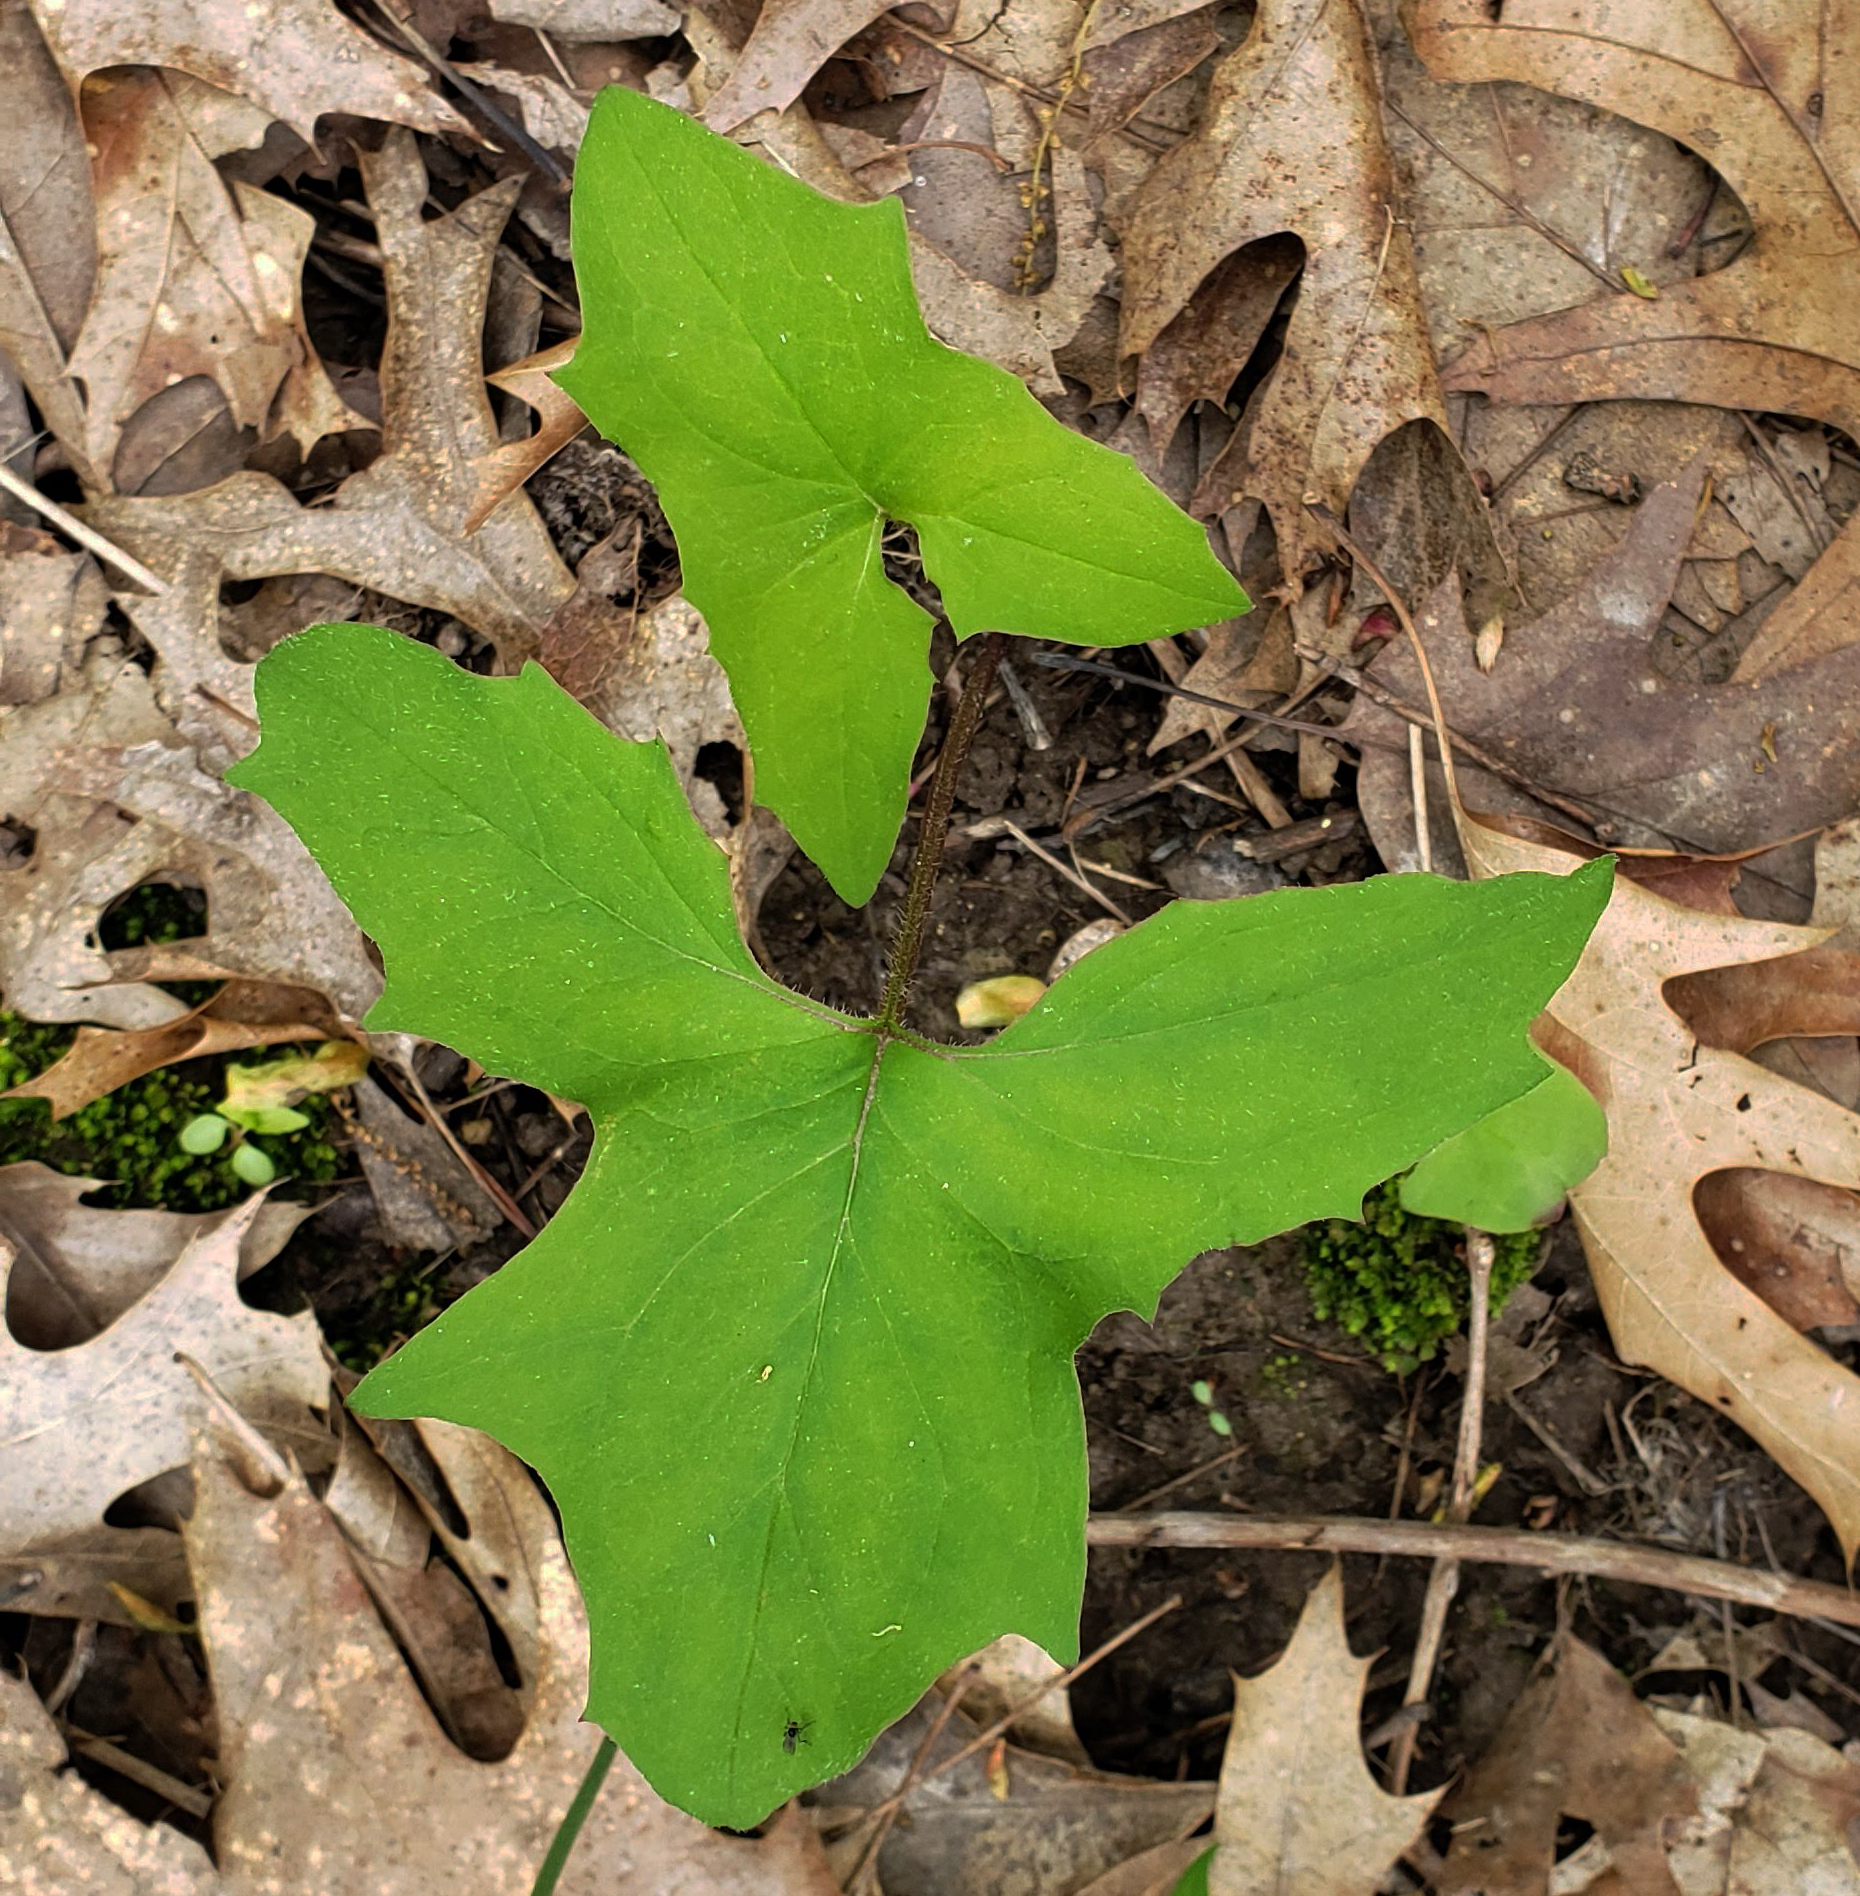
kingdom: Plantae
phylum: Tracheophyta
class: Magnoliopsida
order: Asterales
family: Asteraceae
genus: Nabalus
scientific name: Nabalus albus
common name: White rattlesnakeroot
